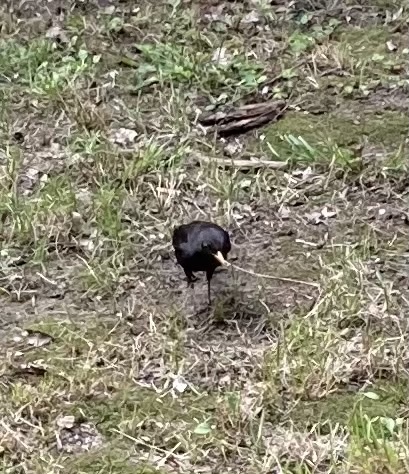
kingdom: Animalia
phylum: Chordata
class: Aves
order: Passeriformes
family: Turdidae
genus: Turdus
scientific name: Turdus merula
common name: Common blackbird
